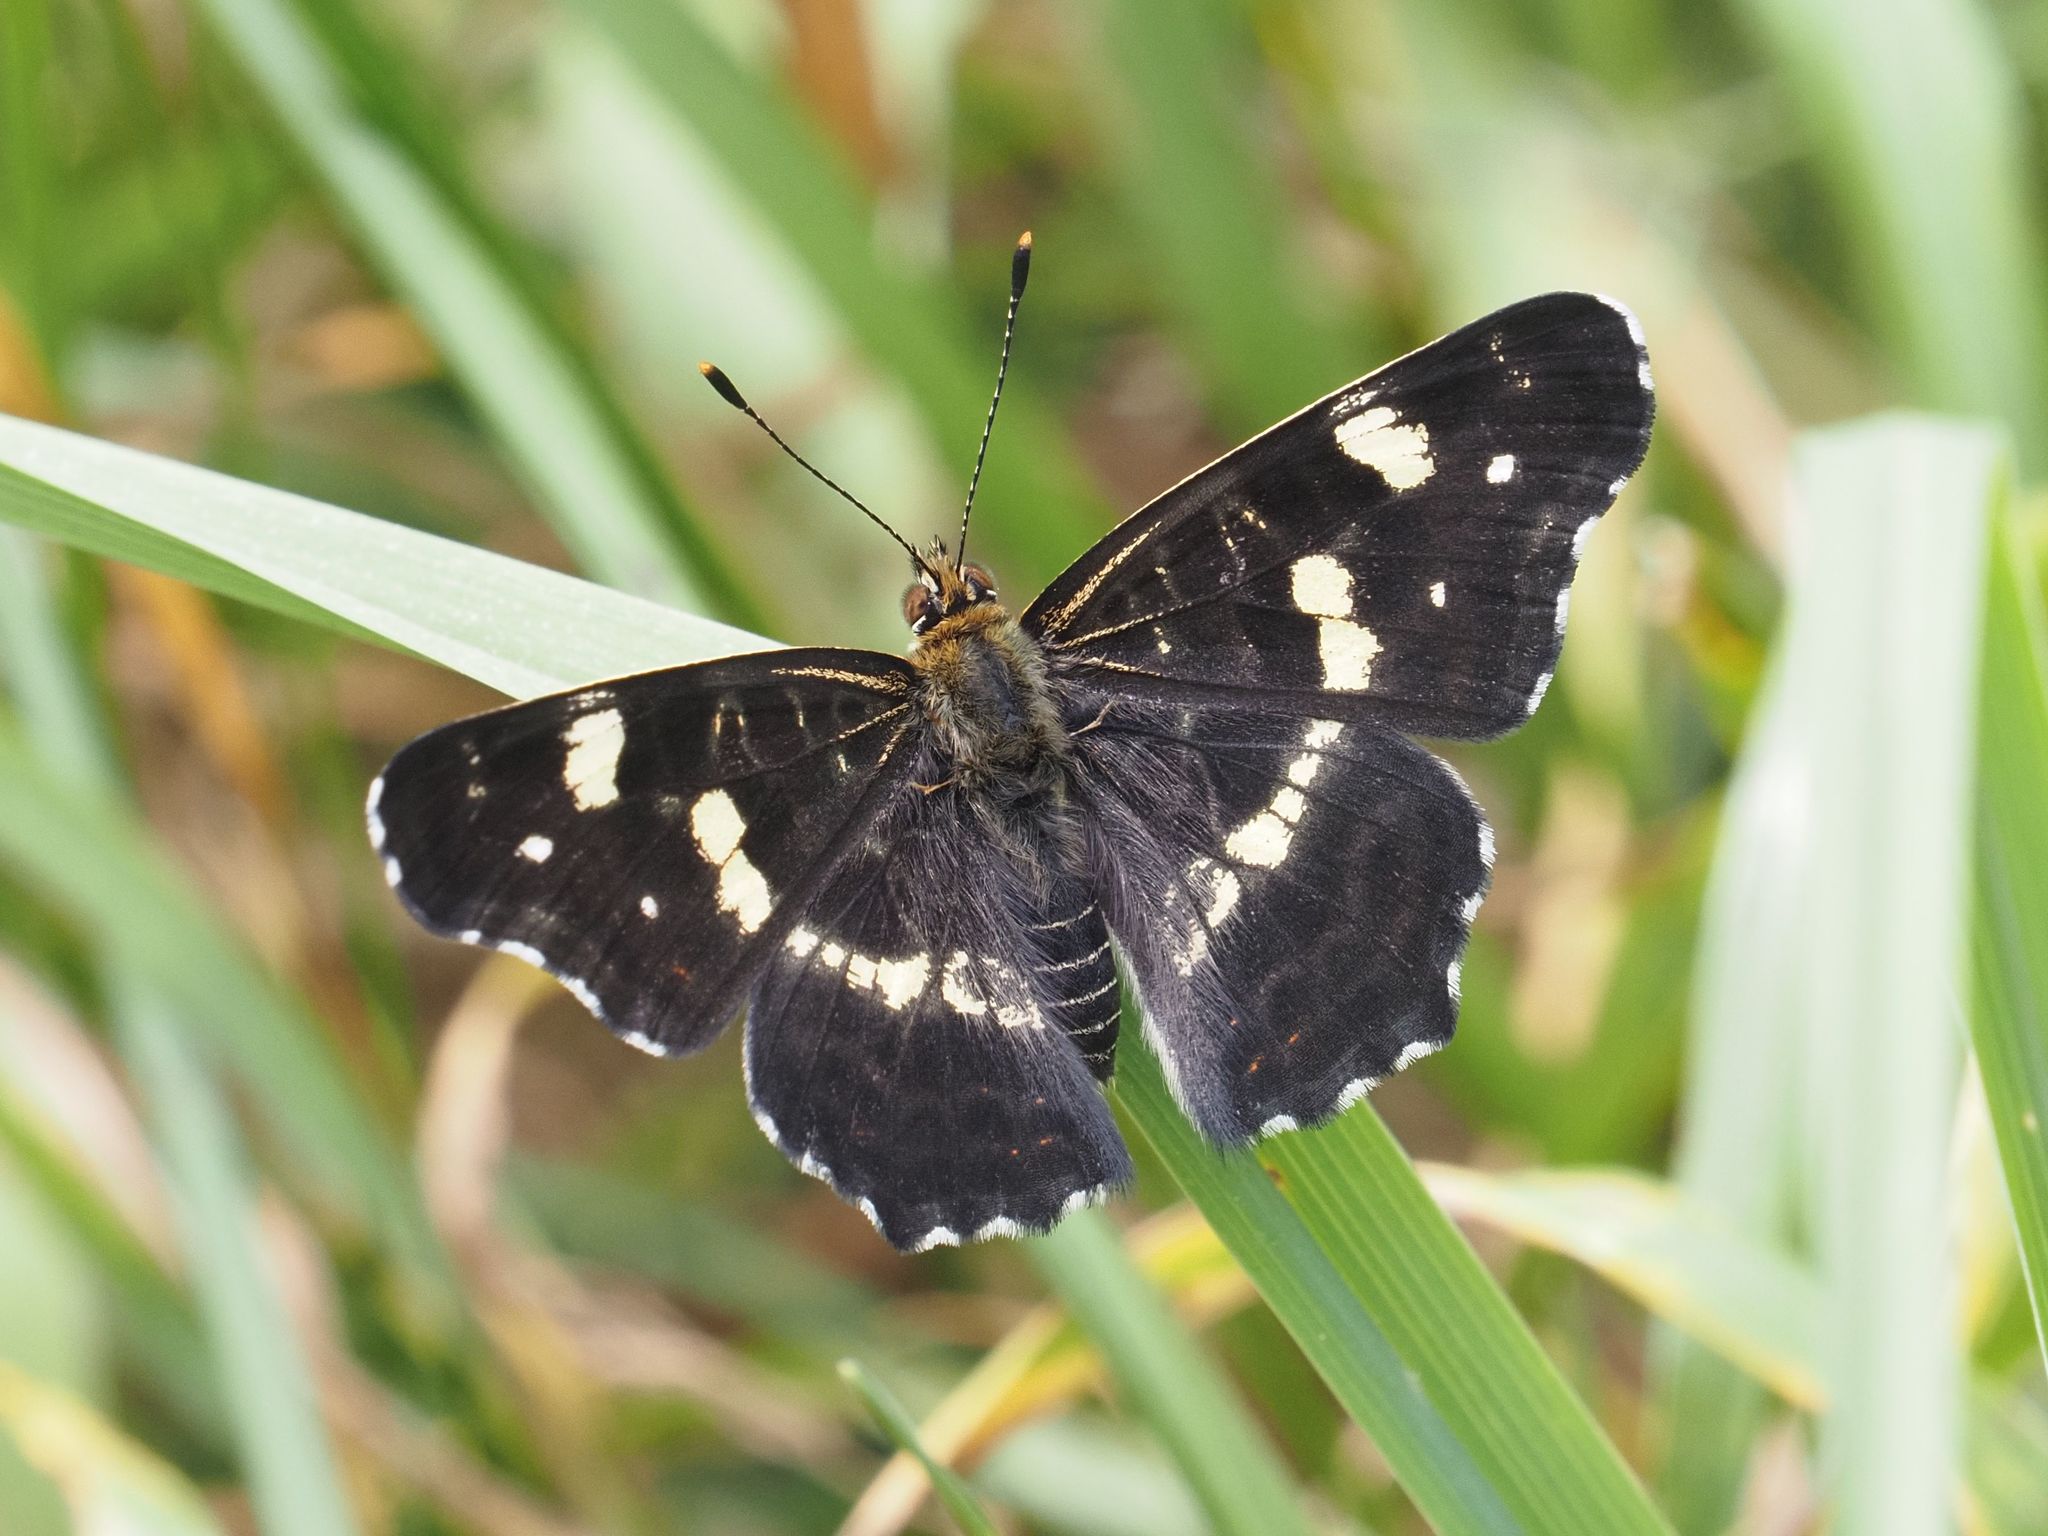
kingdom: Animalia
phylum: Arthropoda
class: Insecta
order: Lepidoptera
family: Nymphalidae
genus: Araschnia
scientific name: Araschnia levana
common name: Map butterfly
